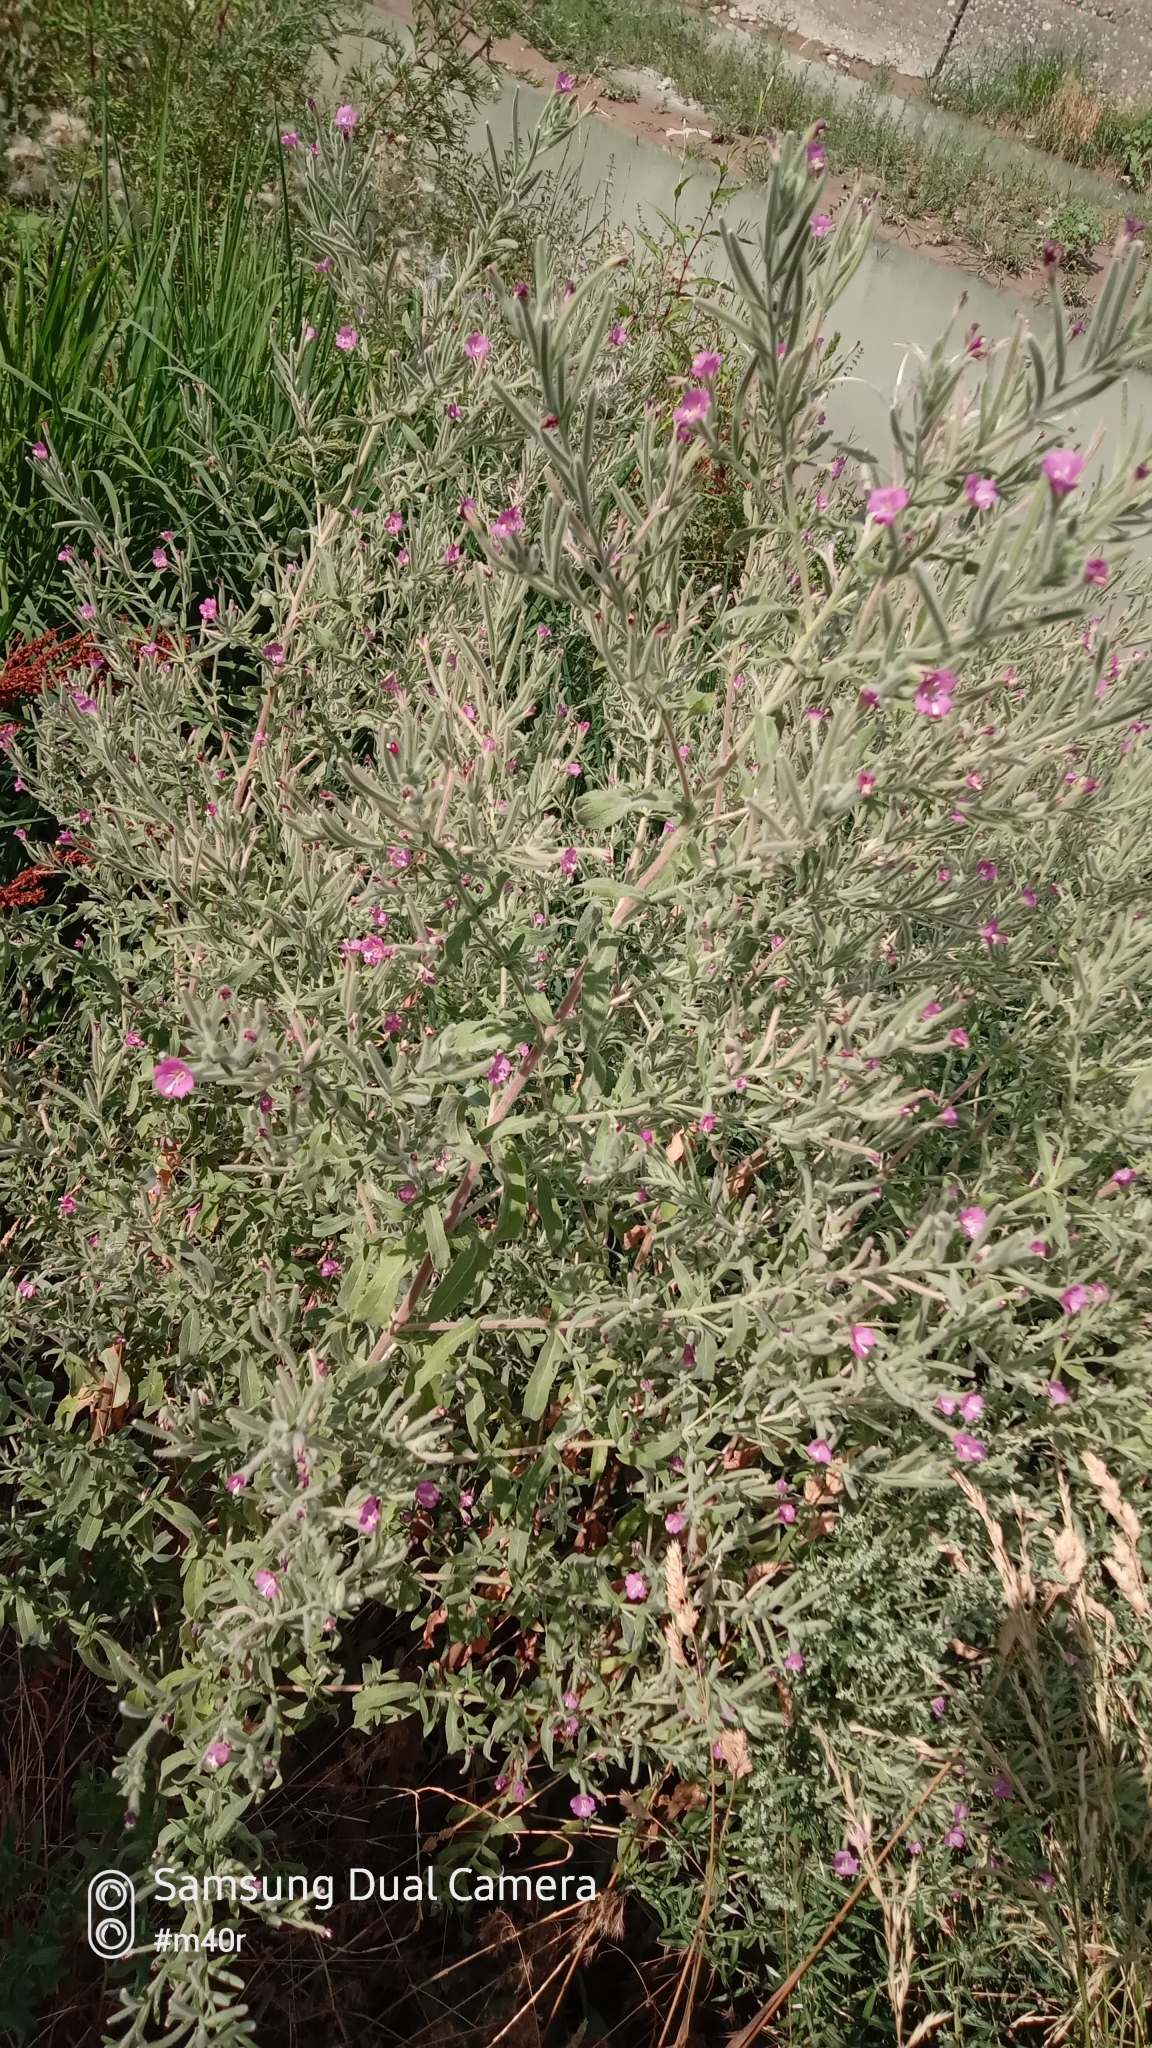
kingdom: Plantae
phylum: Tracheophyta
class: Magnoliopsida
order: Myrtales
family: Onagraceae
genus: Epilobium
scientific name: Epilobium hirsutum
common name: Great willowherb
